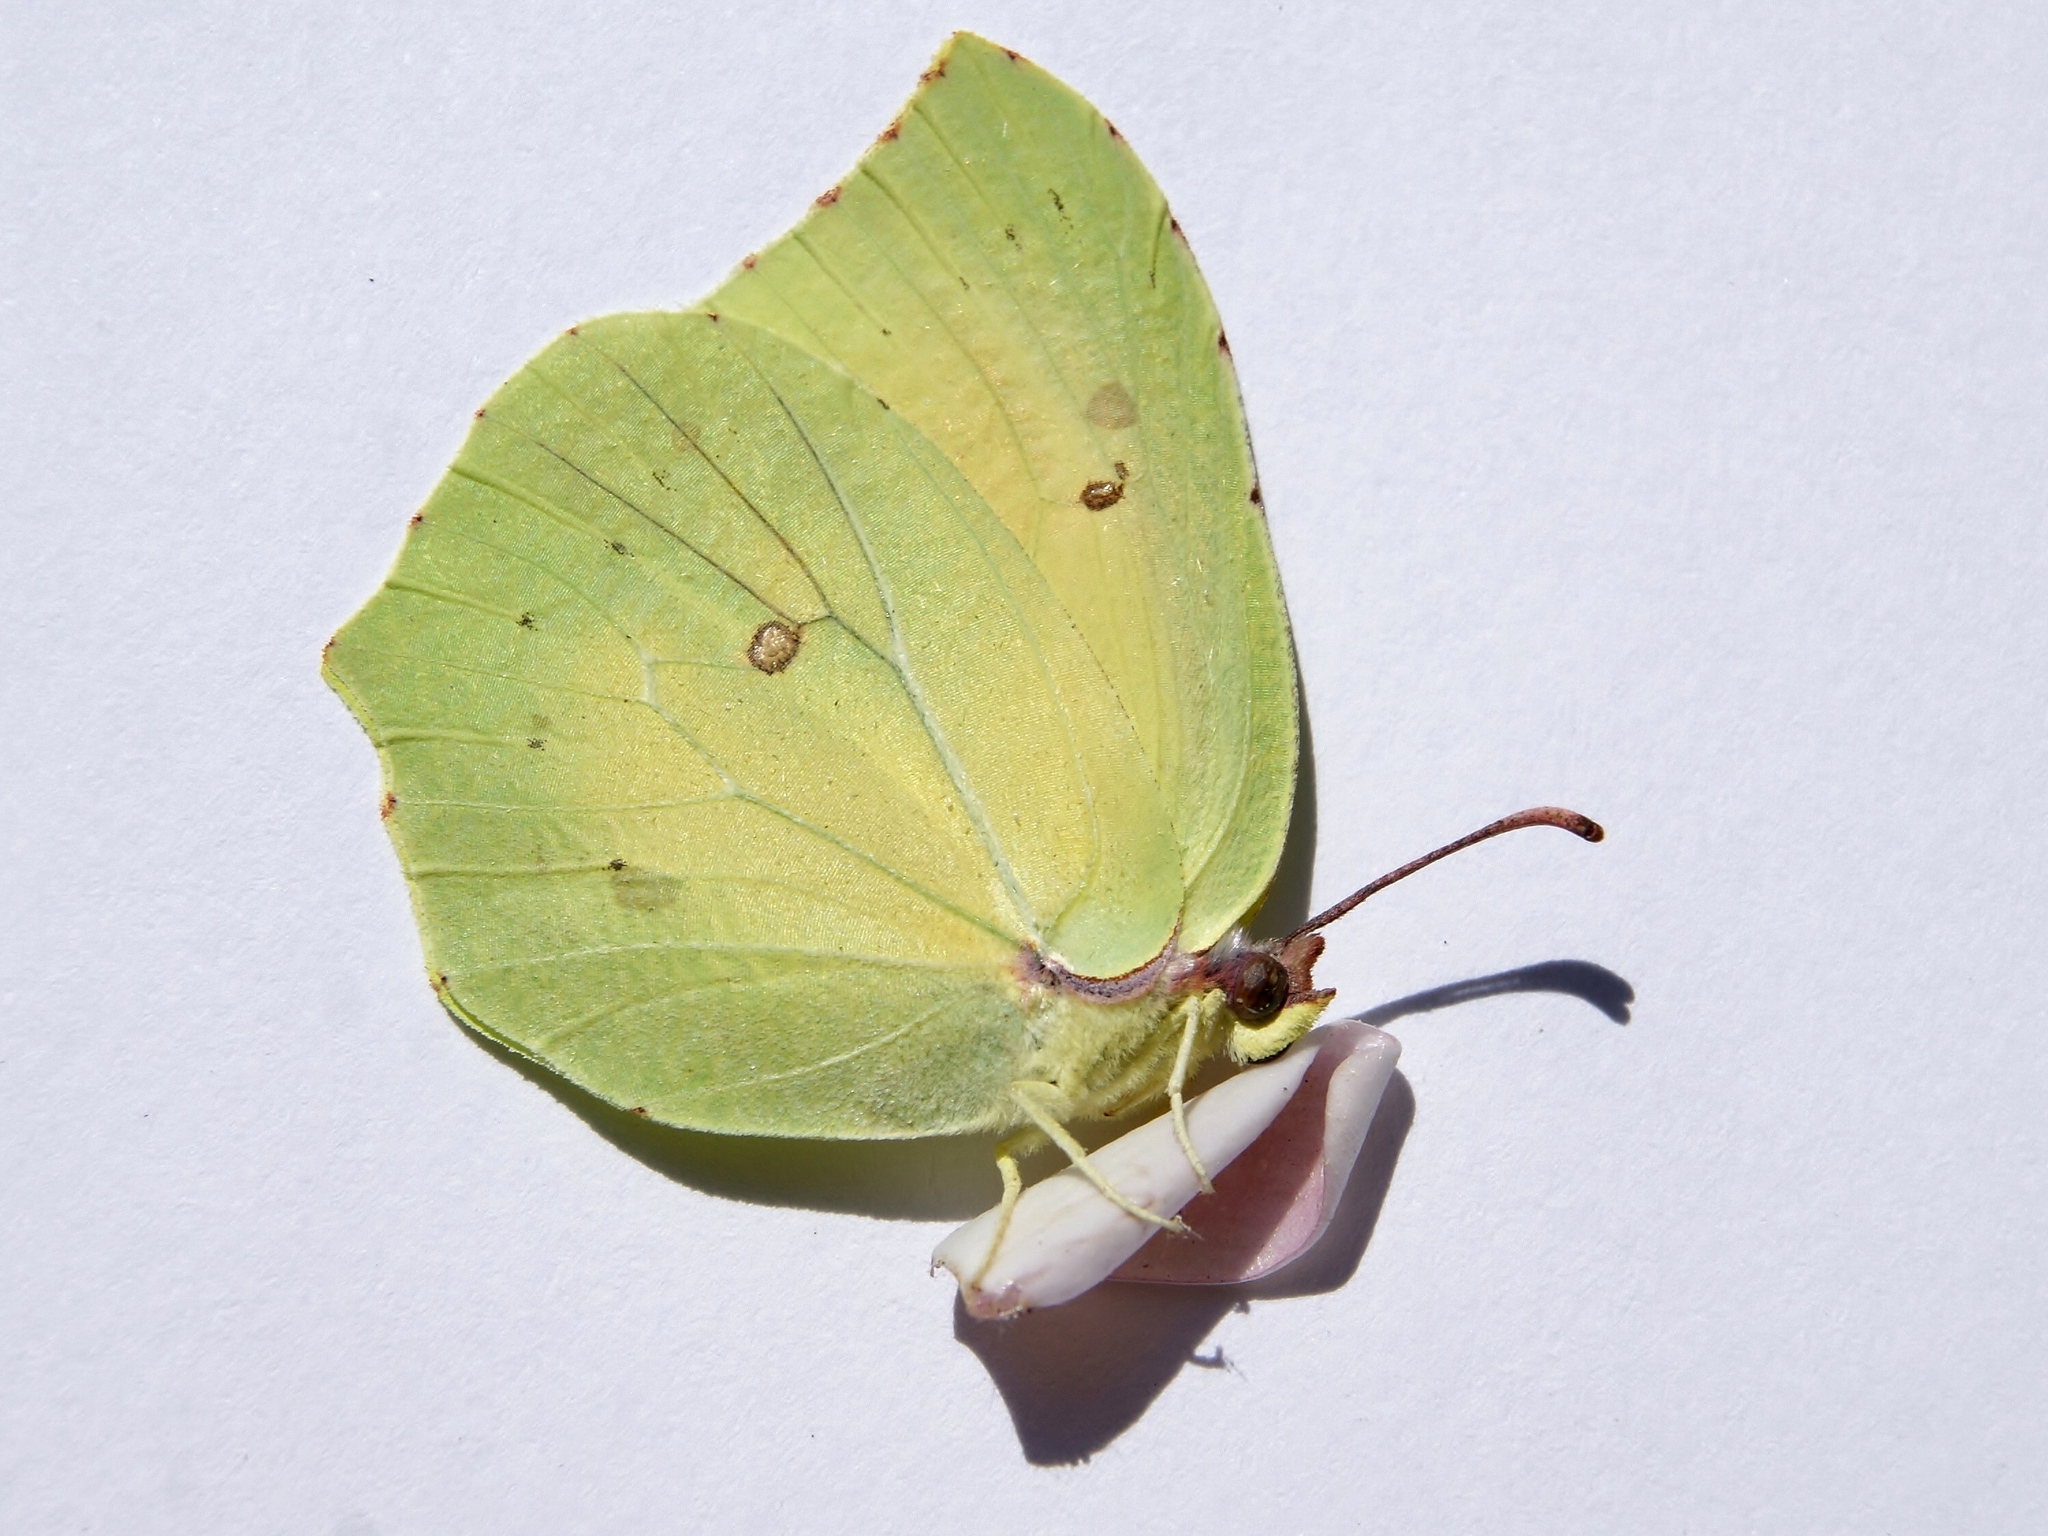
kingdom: Animalia
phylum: Arthropoda
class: Insecta
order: Lepidoptera
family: Pieridae
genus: Gonepteryx
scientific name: Gonepteryx cleopatra
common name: Cleopatra
